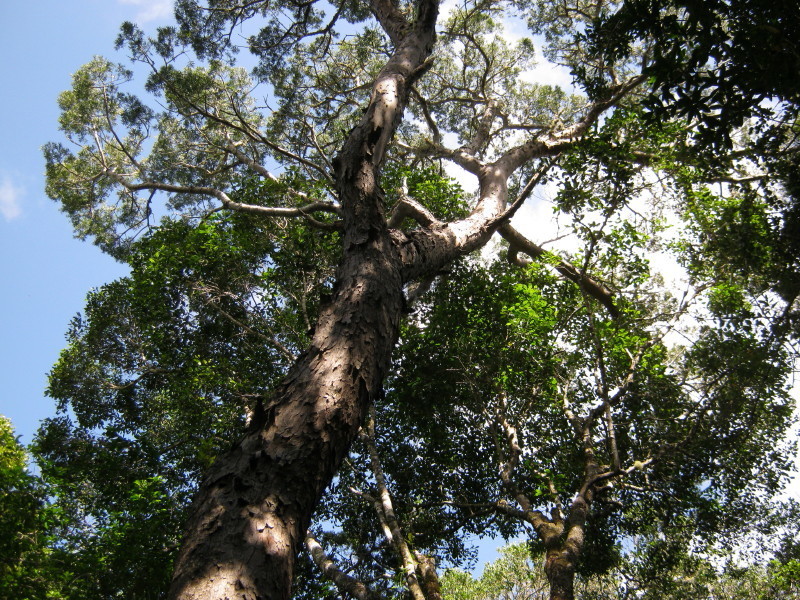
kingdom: Plantae
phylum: Tracheophyta
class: Pinopsida
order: Pinales
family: Podocarpaceae
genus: Afrocarpus
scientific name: Afrocarpus falcatus
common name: Bastard yellowwood
